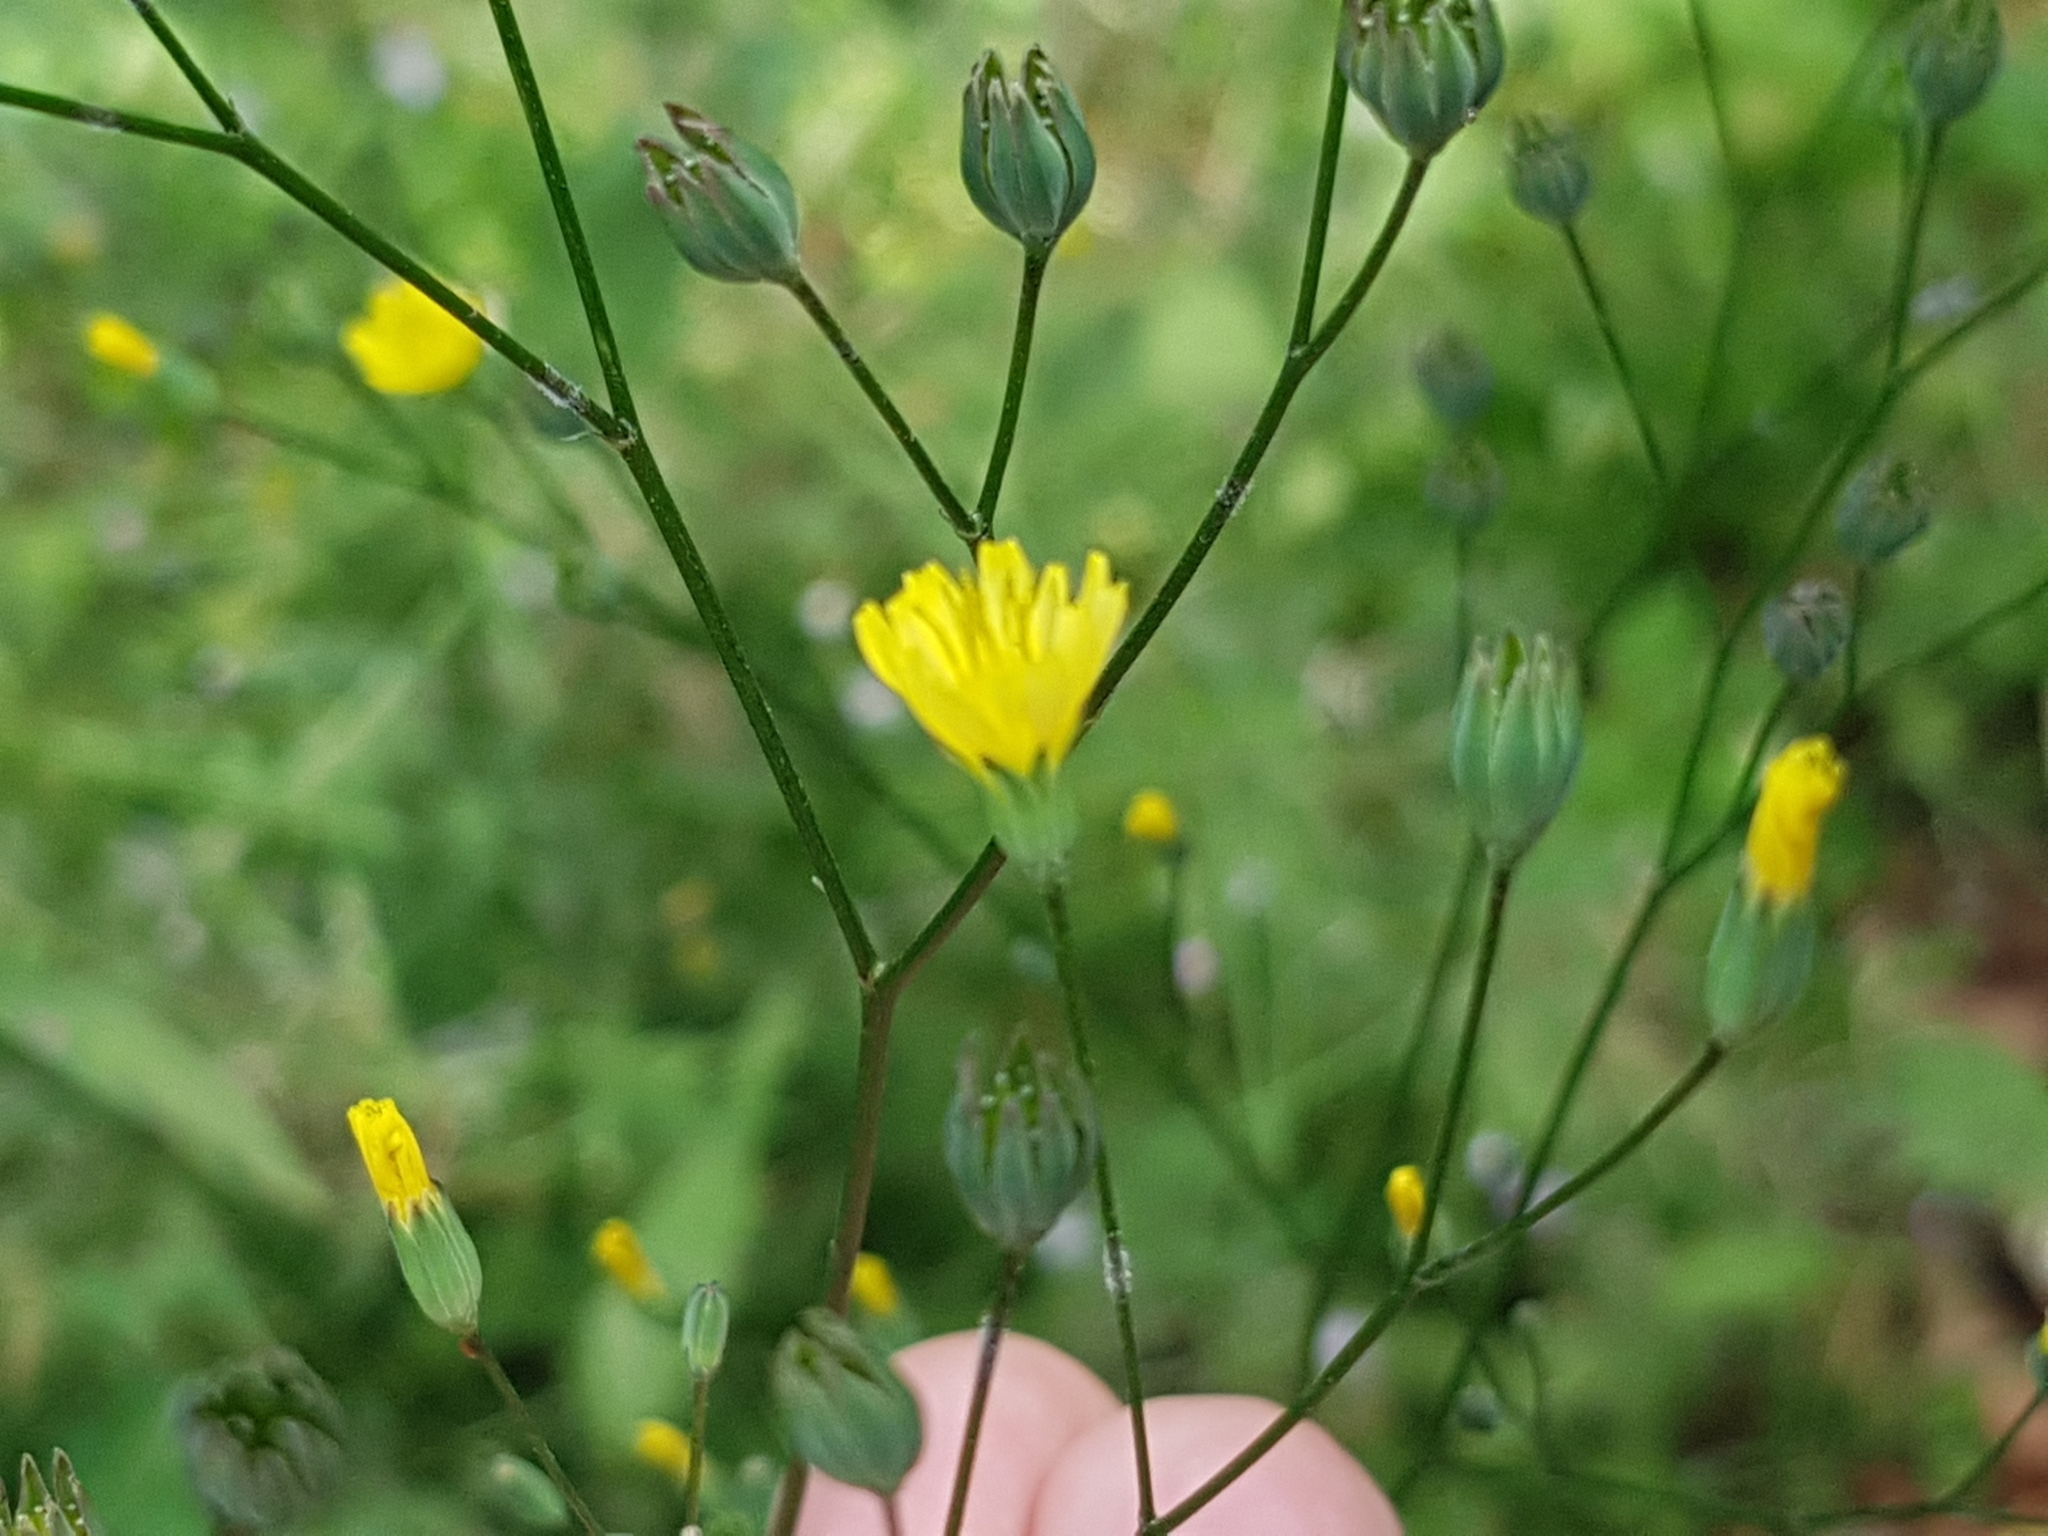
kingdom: Plantae
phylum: Tracheophyta
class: Magnoliopsida
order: Asterales
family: Asteraceae
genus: Lapsana
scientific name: Lapsana communis
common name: Nipplewort
